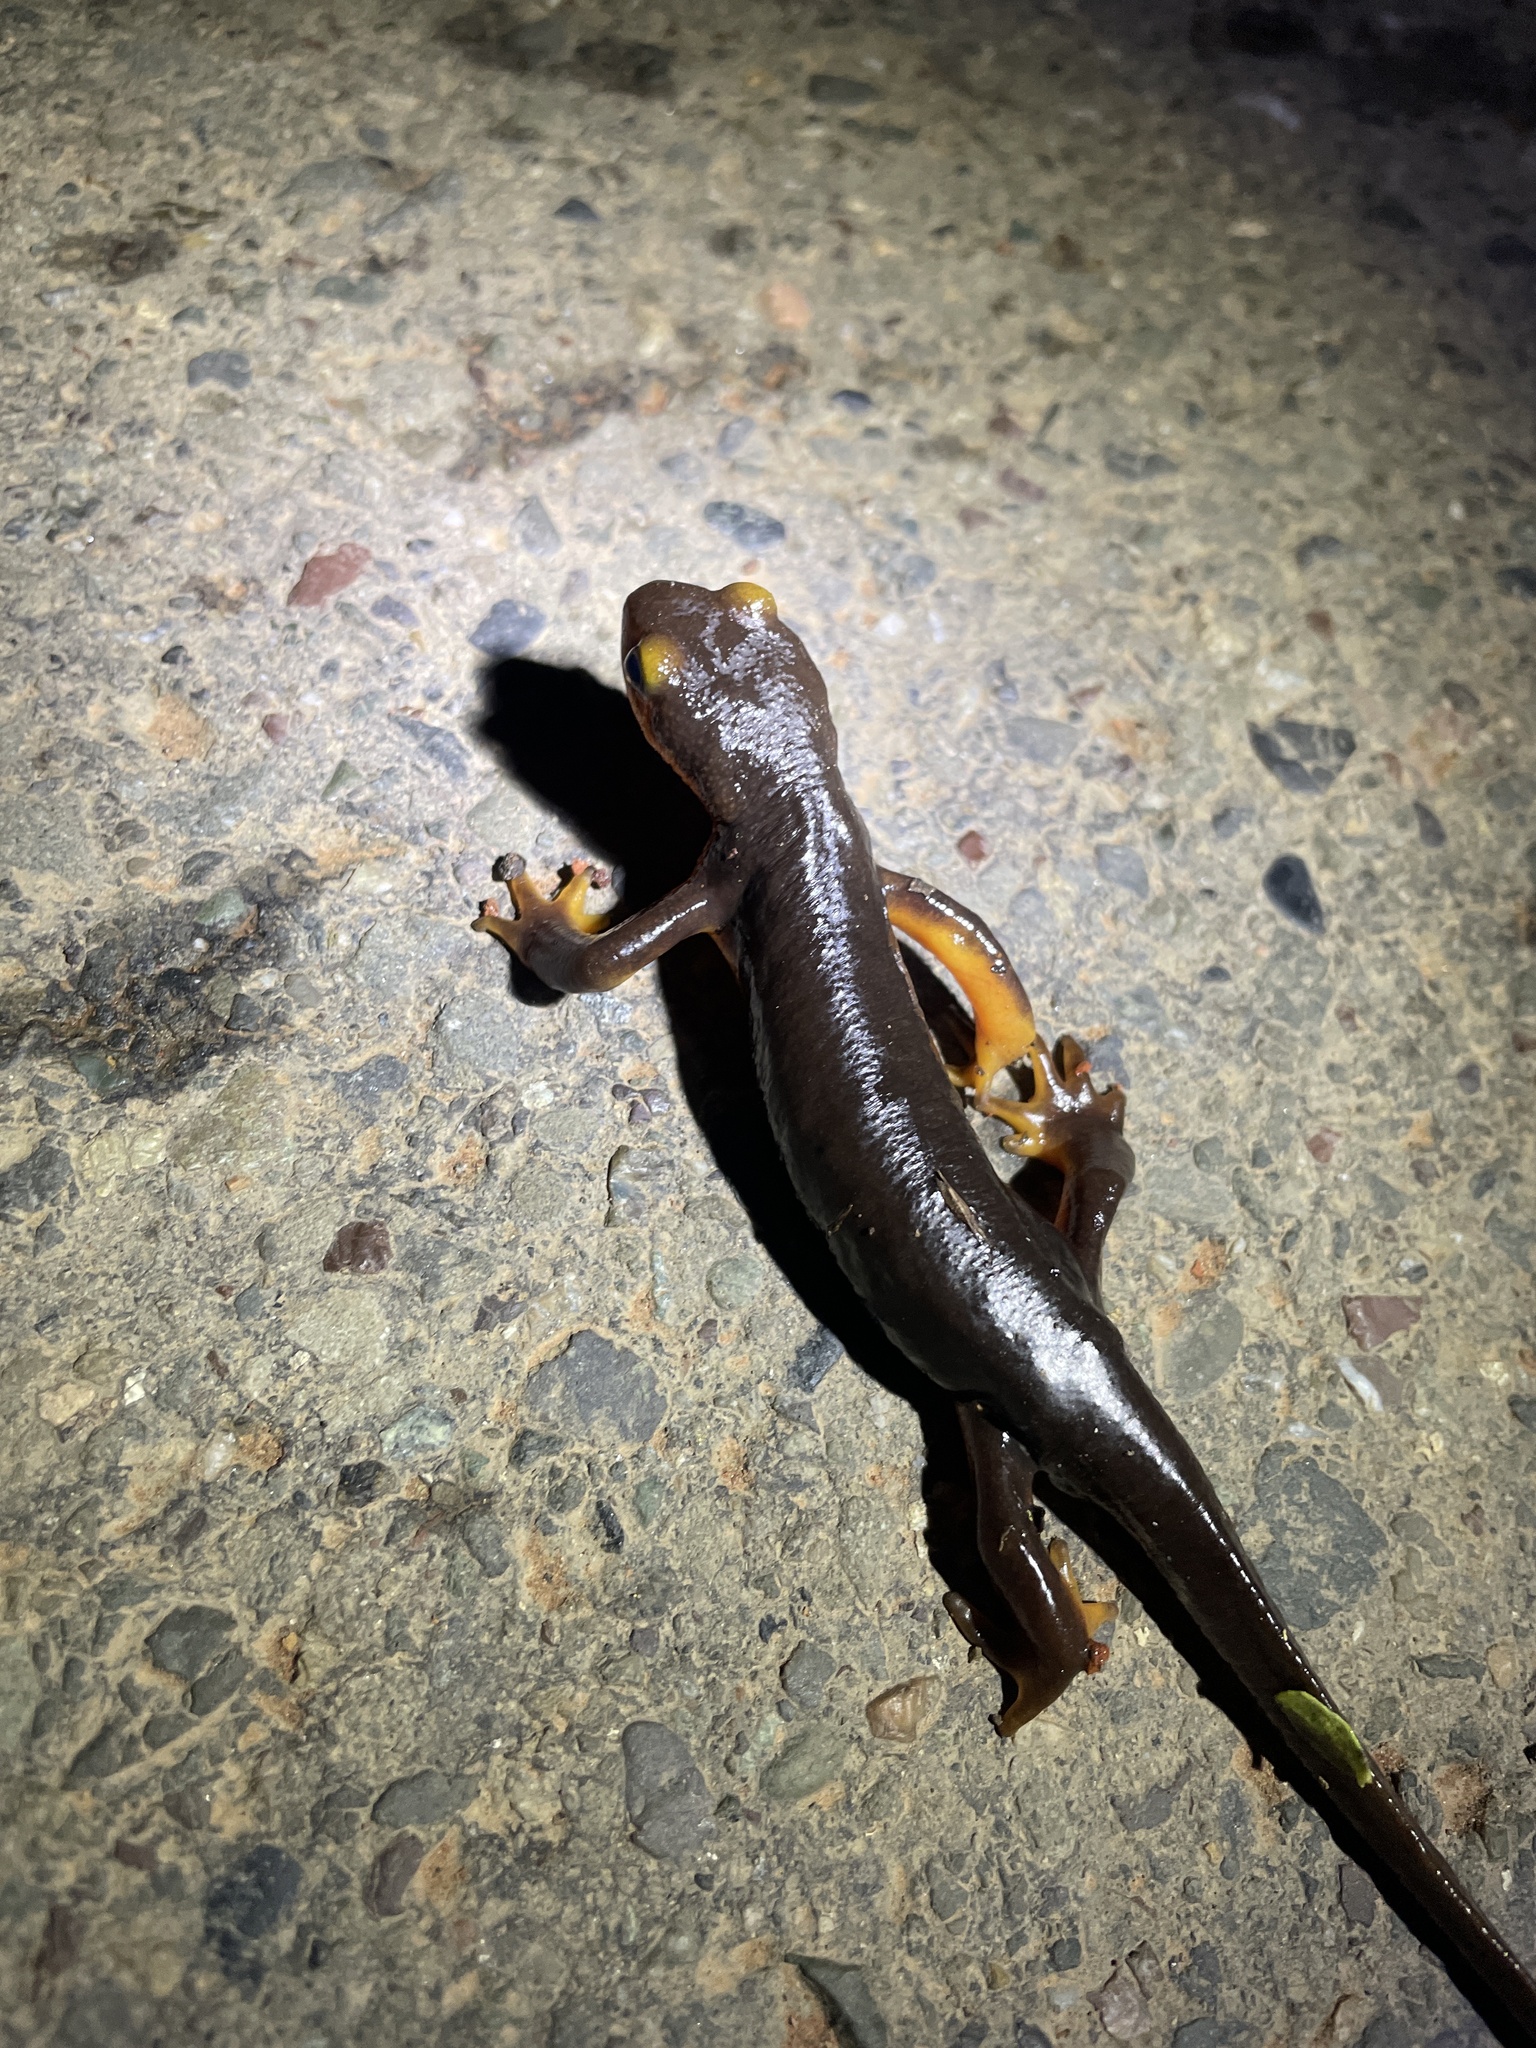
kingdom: Animalia
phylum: Chordata
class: Amphibia
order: Caudata
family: Salamandridae
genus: Taricha
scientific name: Taricha torosa
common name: California newt
